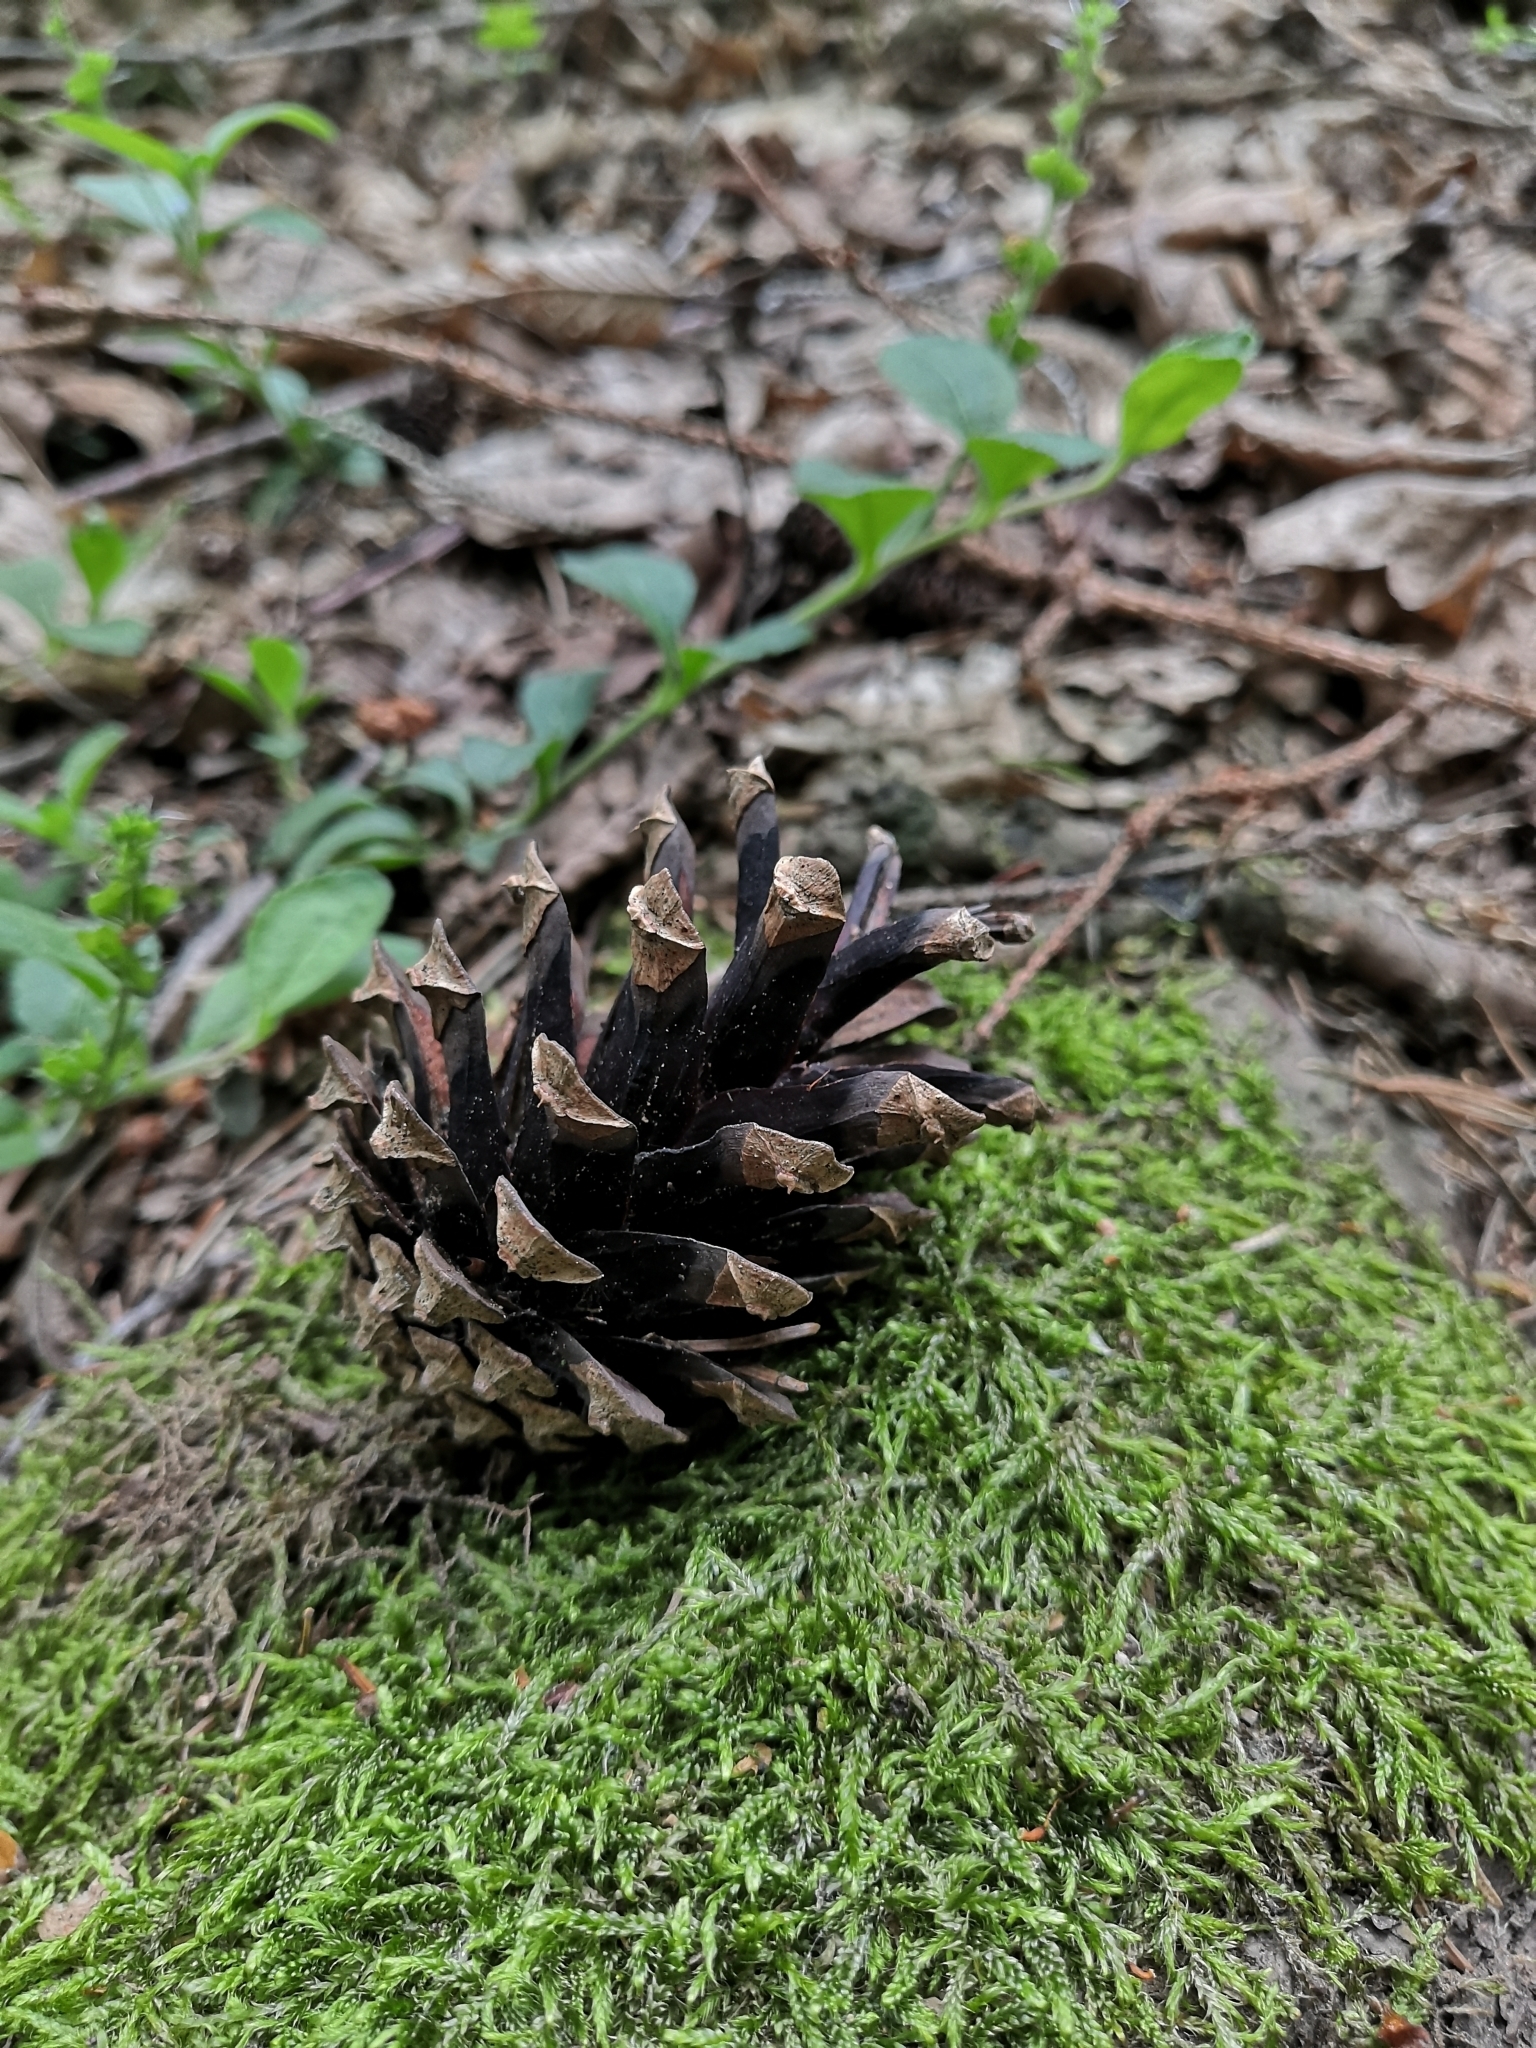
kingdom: Plantae
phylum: Tracheophyta
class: Pinopsida
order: Pinales
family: Pinaceae
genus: Pinus
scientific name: Pinus sylvestris
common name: Scots pine
